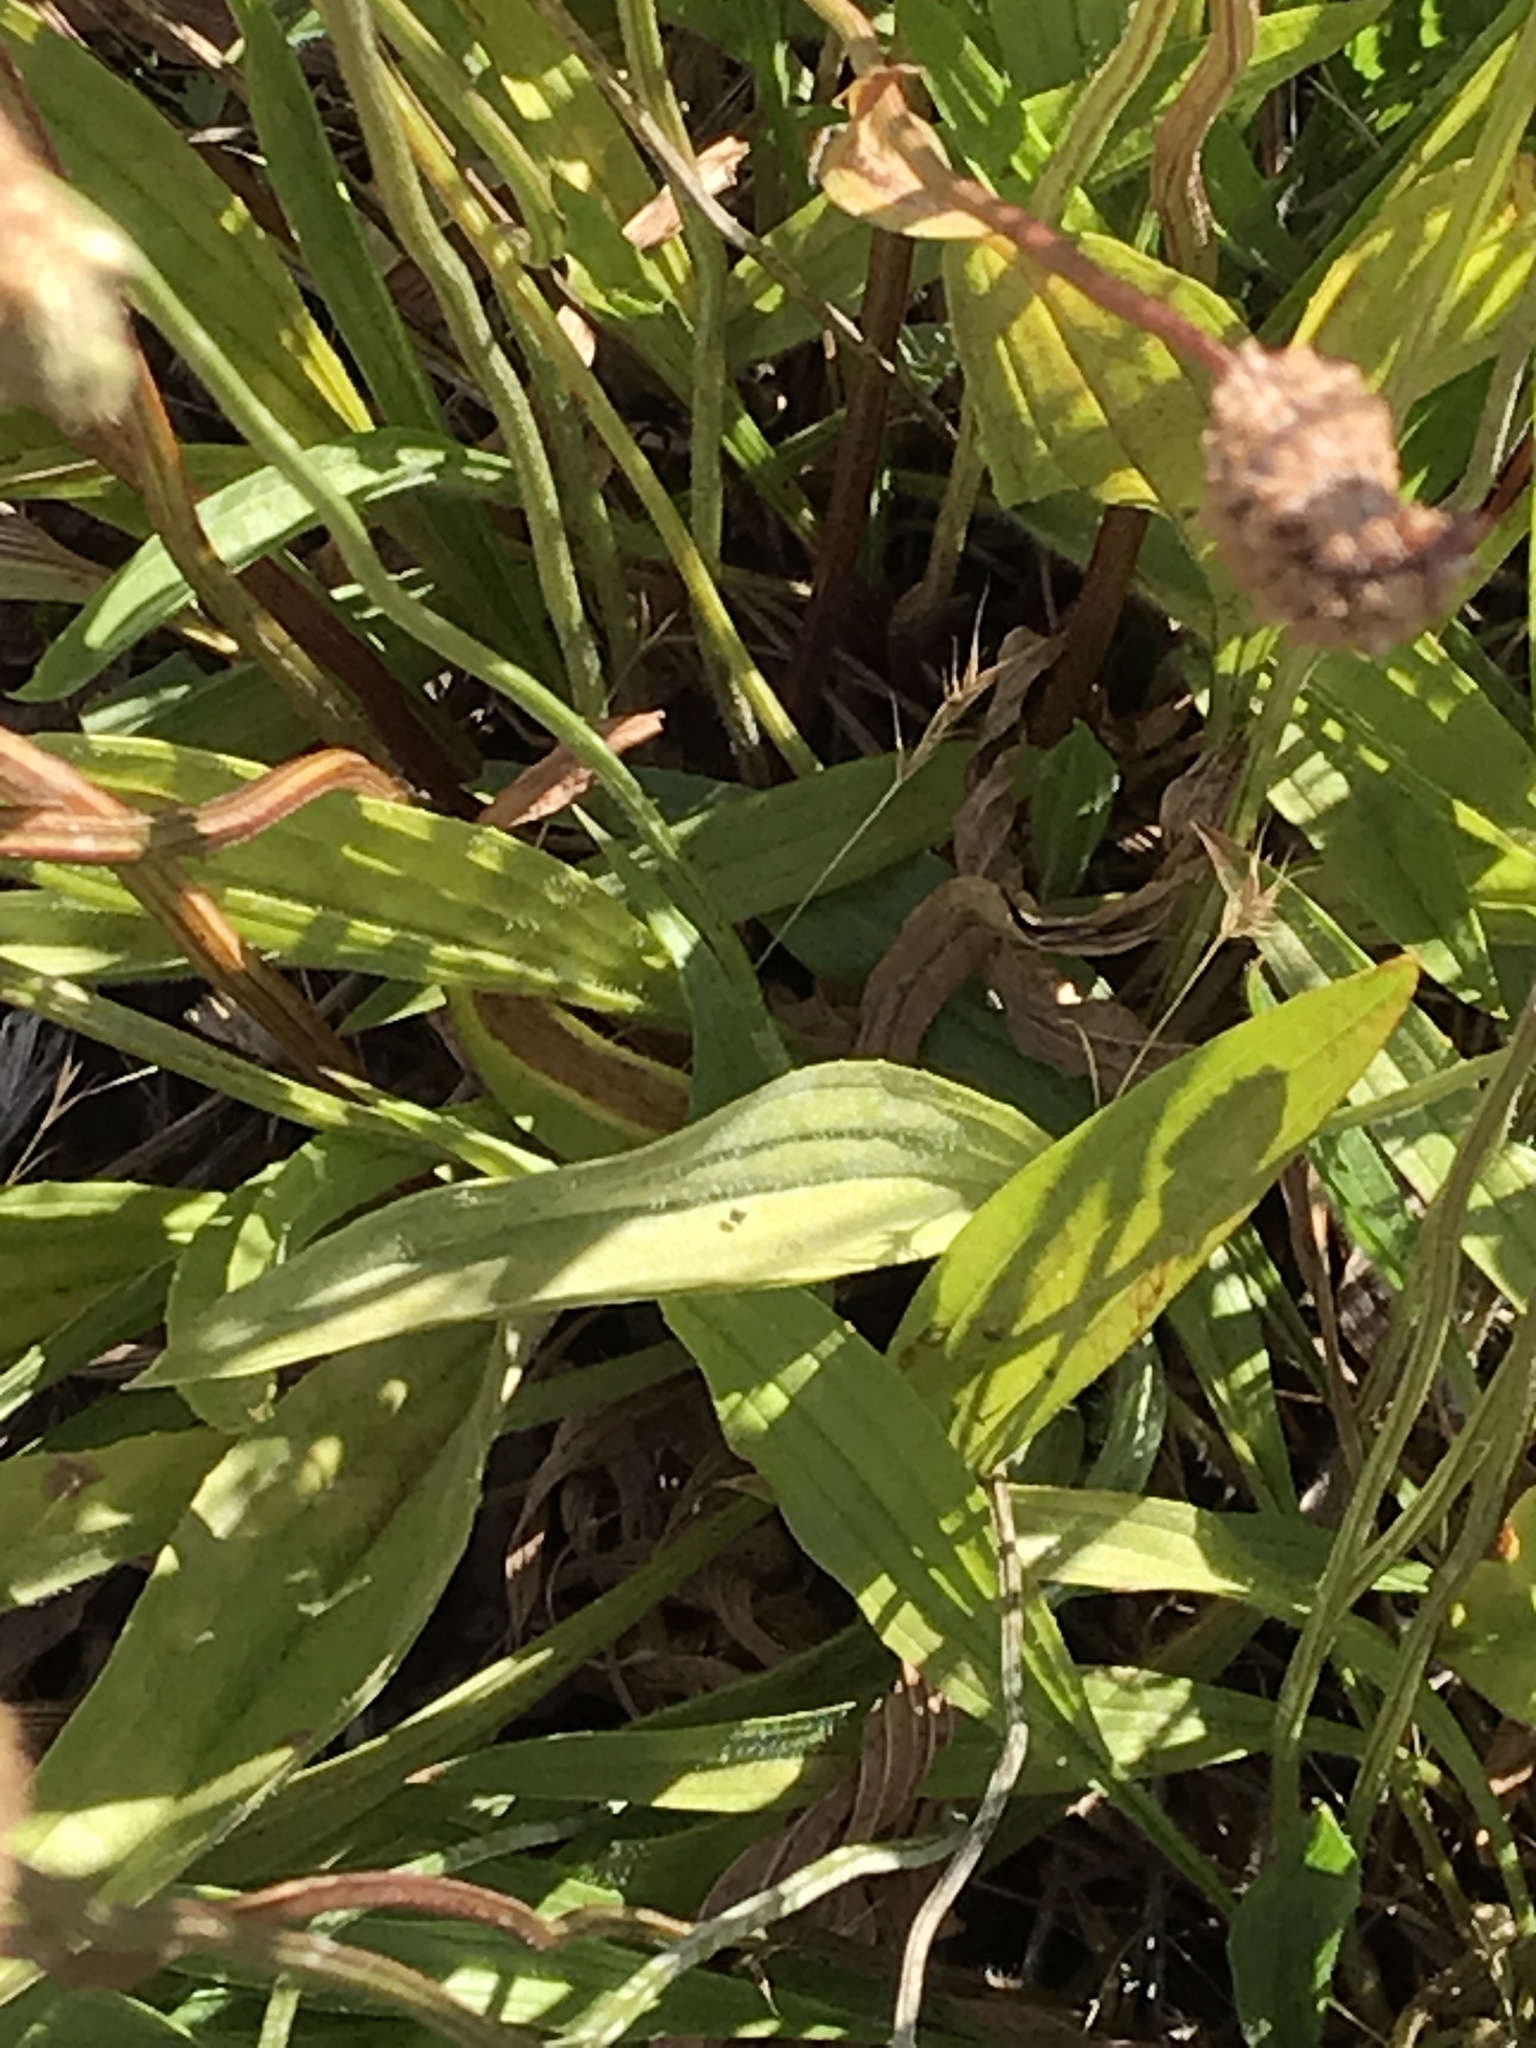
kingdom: Plantae
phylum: Tracheophyta
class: Magnoliopsida
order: Lamiales
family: Plantaginaceae
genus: Plantago
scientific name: Plantago lanceolata
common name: Ribwort plantain
